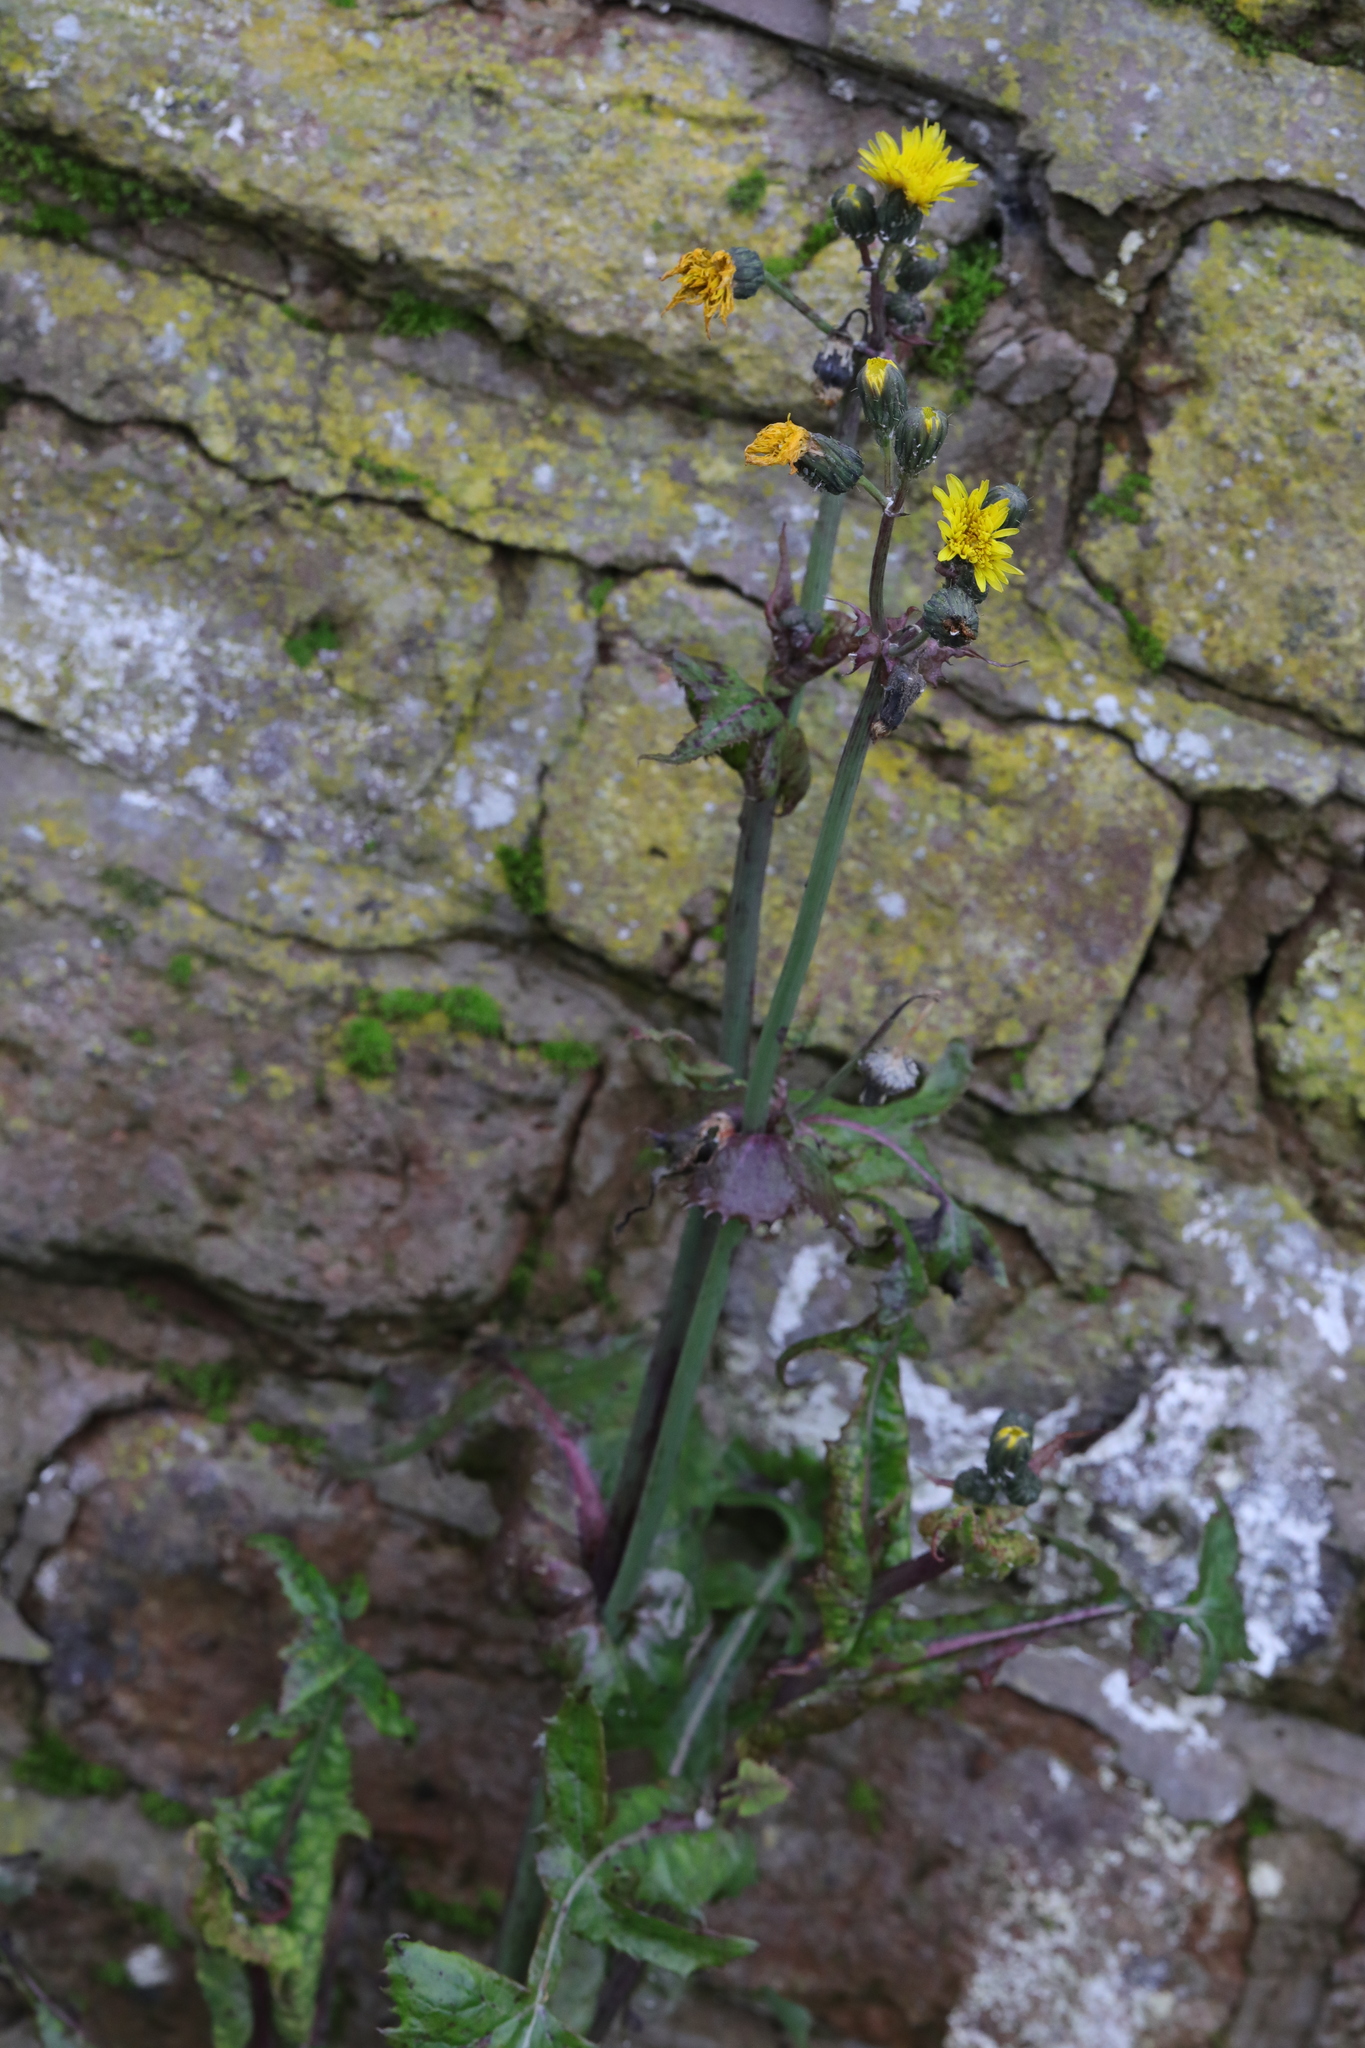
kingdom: Plantae
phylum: Tracheophyta
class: Magnoliopsida
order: Asterales
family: Asteraceae
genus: Sonchus
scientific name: Sonchus asper
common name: Prickly sow-thistle
